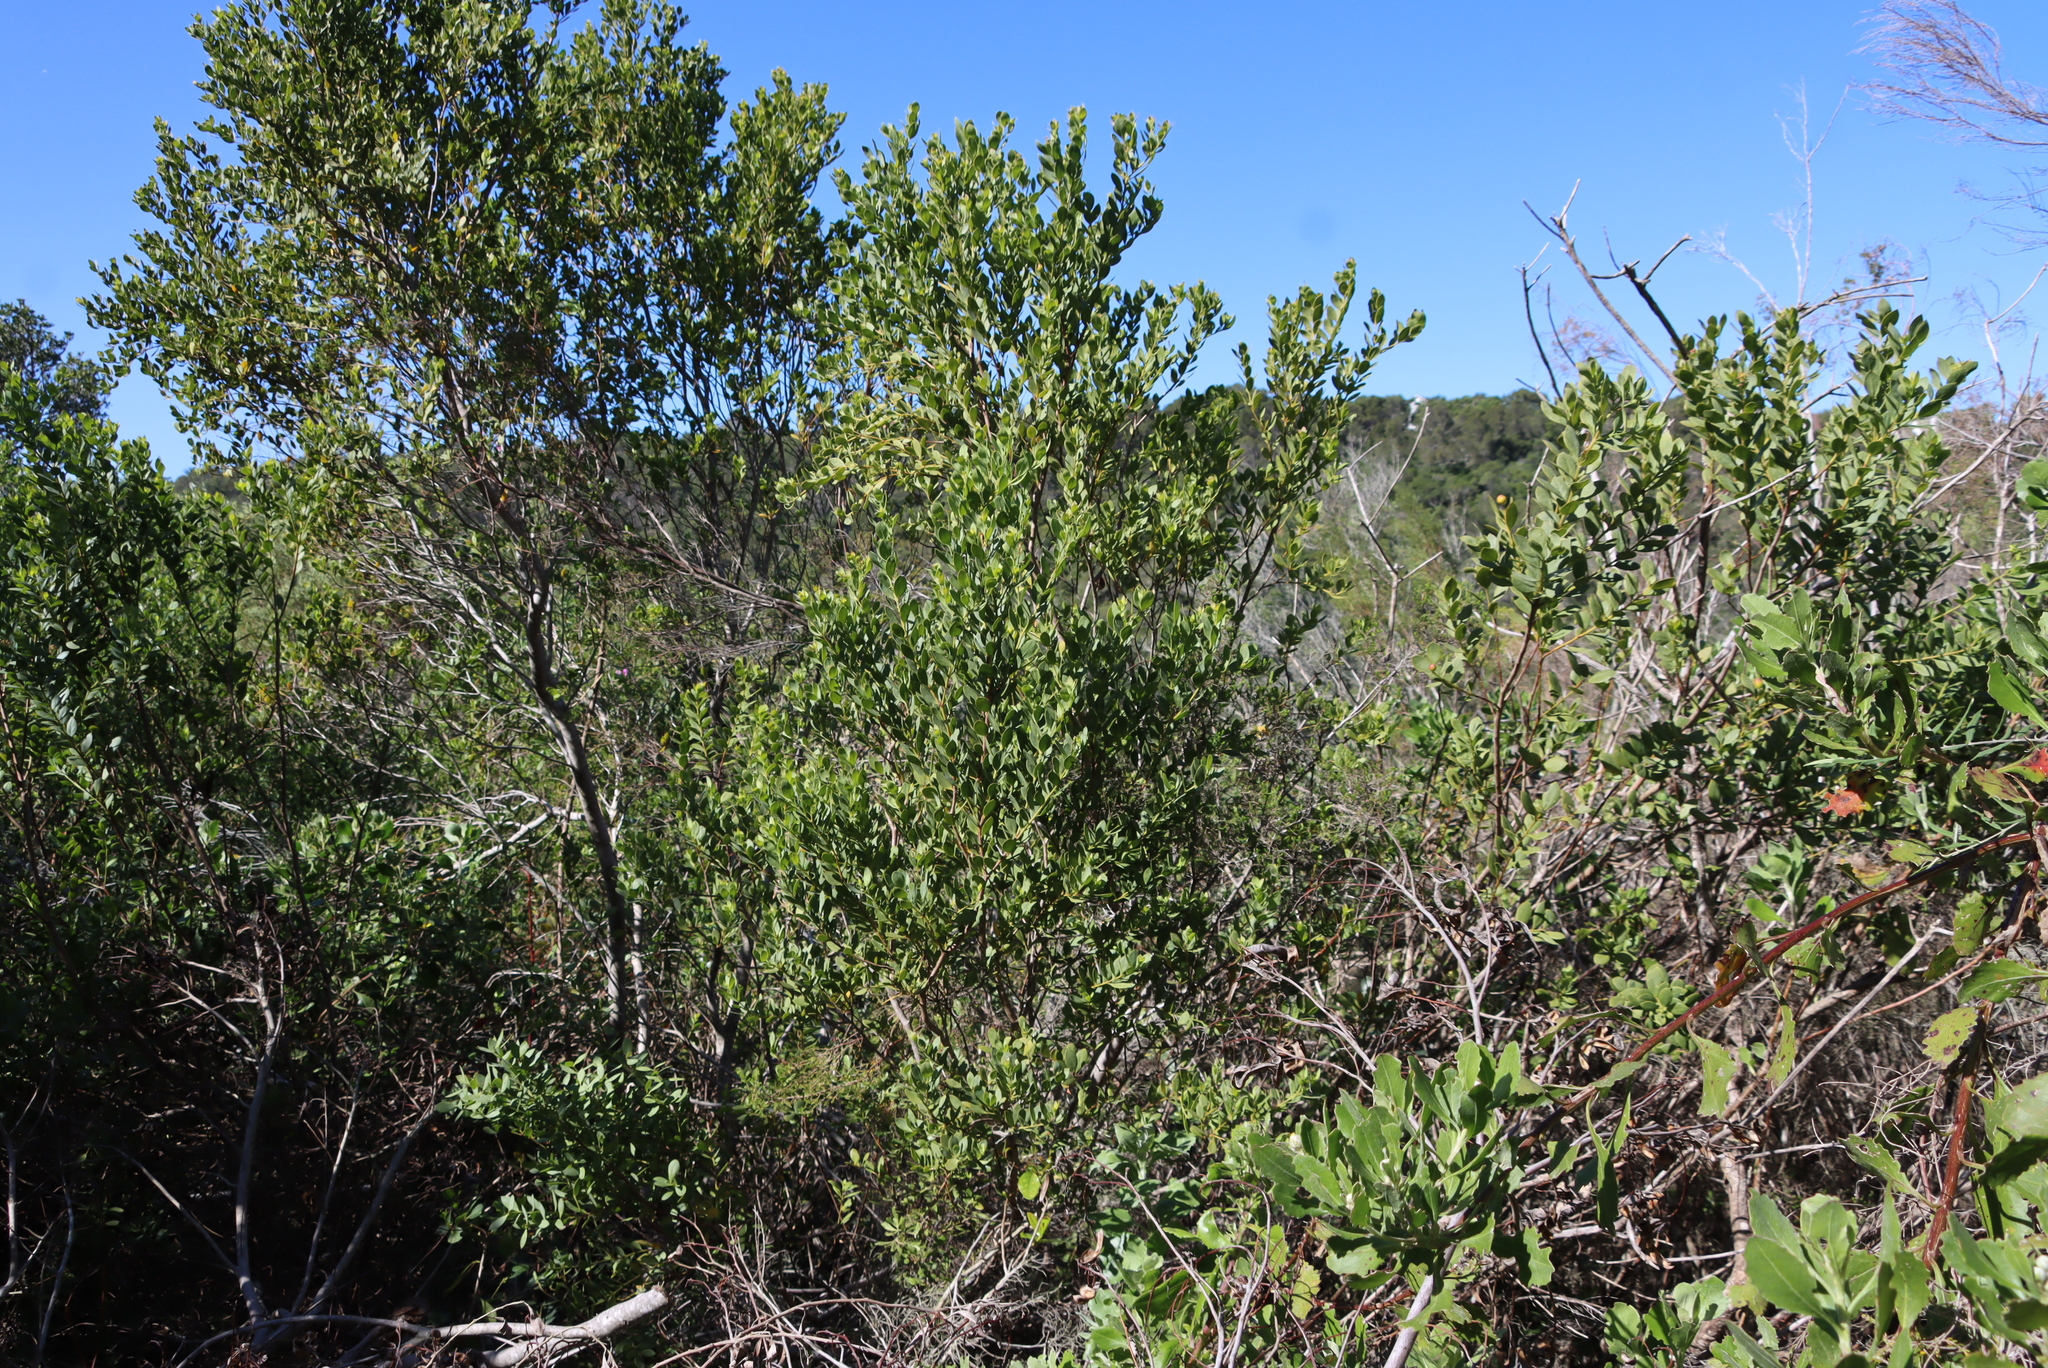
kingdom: Plantae
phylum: Tracheophyta
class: Magnoliopsida
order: Santalales
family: Santalaceae
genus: Osyris
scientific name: Osyris compressa
